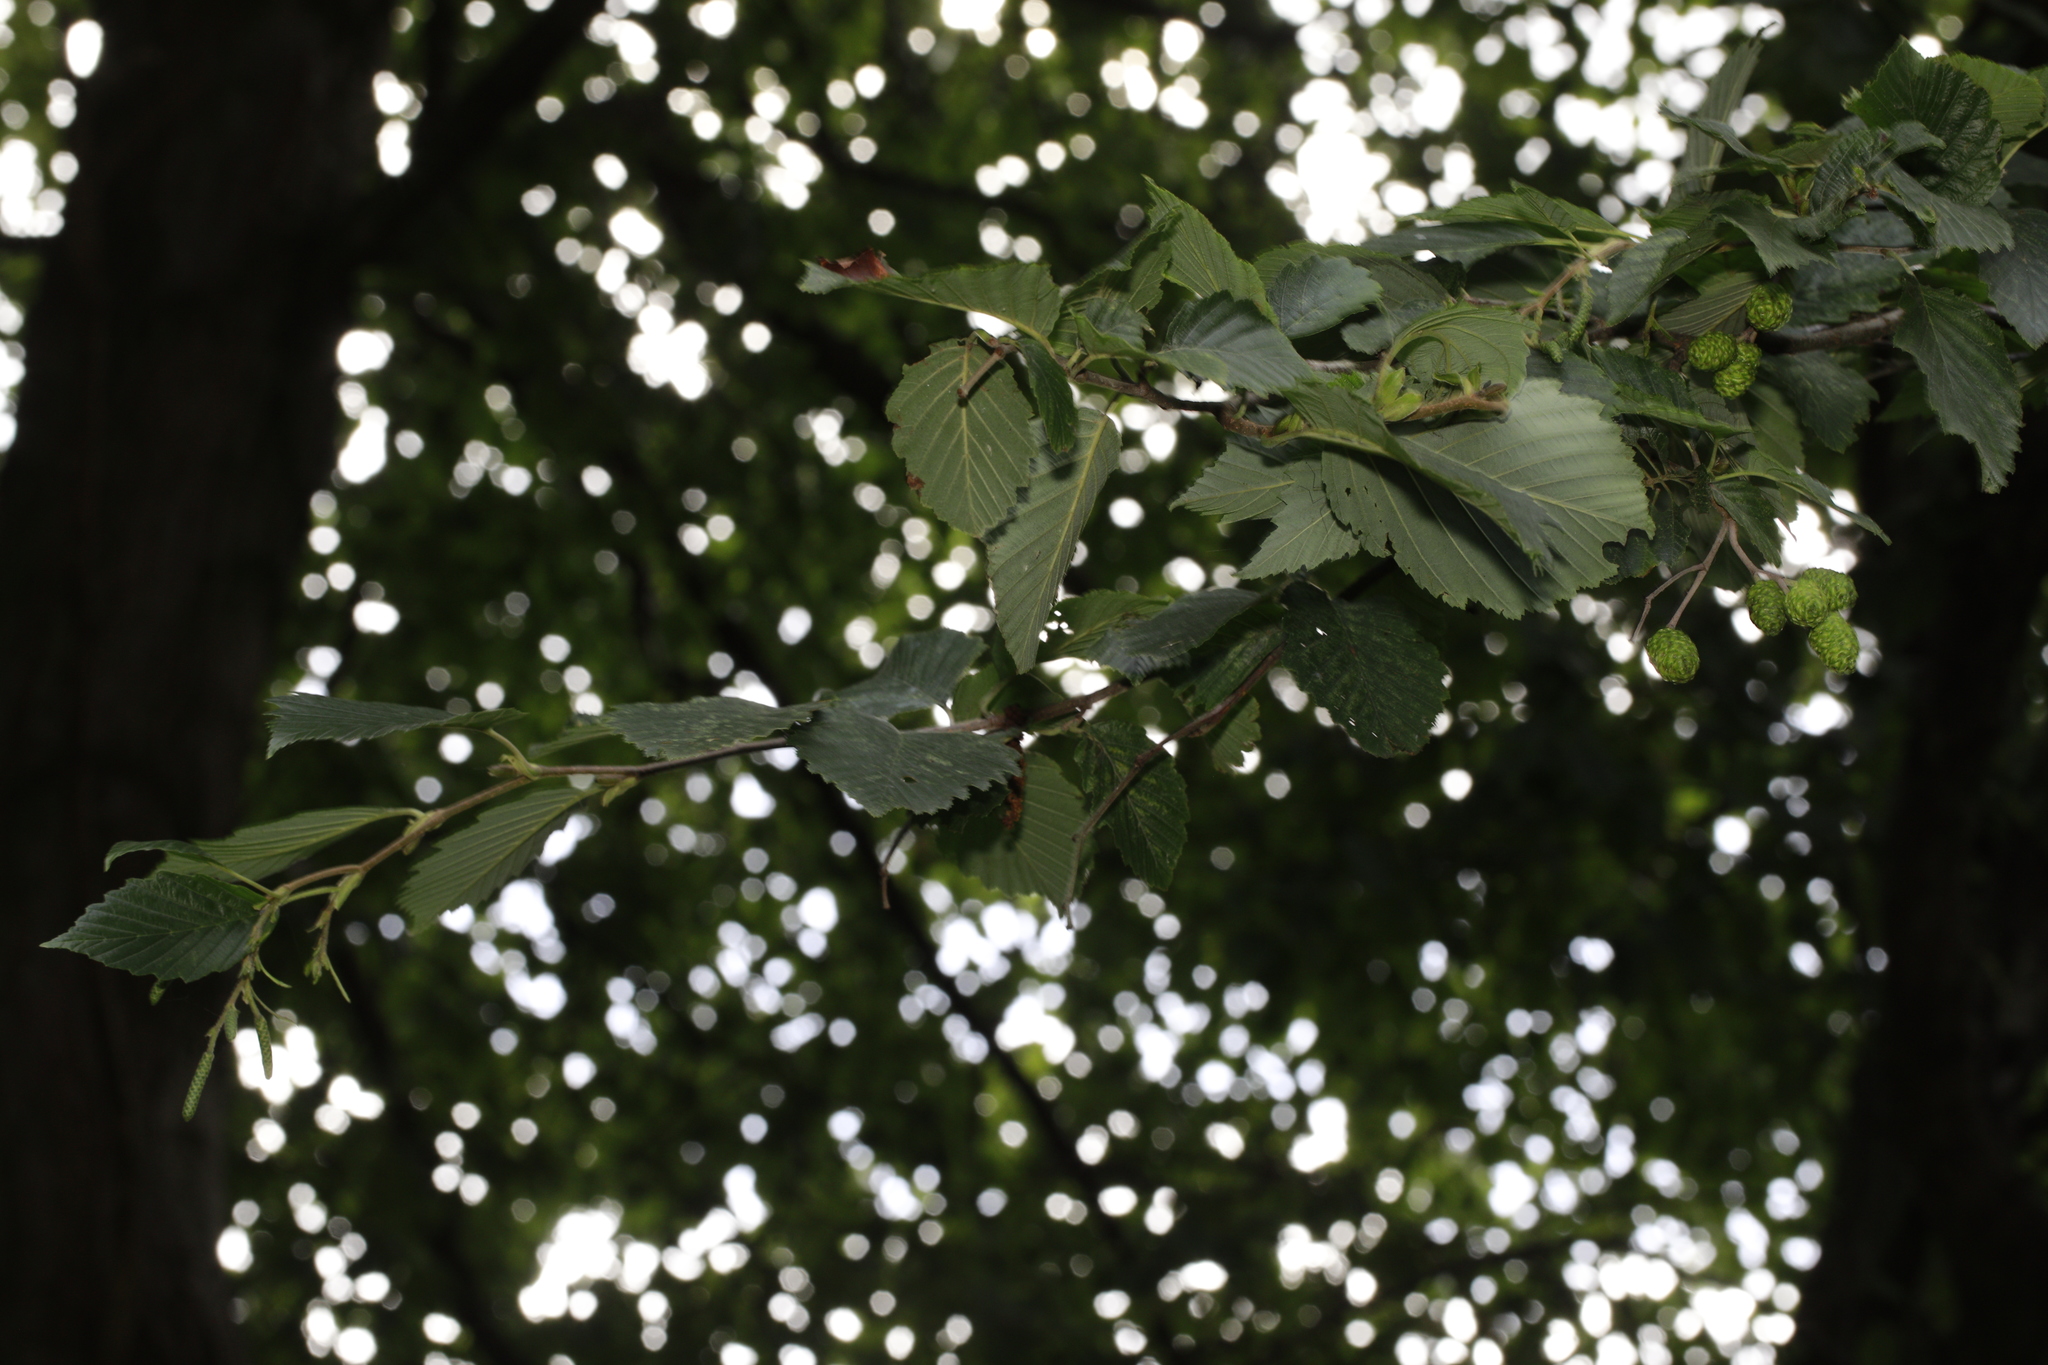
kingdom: Plantae
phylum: Tracheophyta
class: Magnoliopsida
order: Fagales
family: Betulaceae
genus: Alnus
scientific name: Alnus incana
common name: Grey alder
